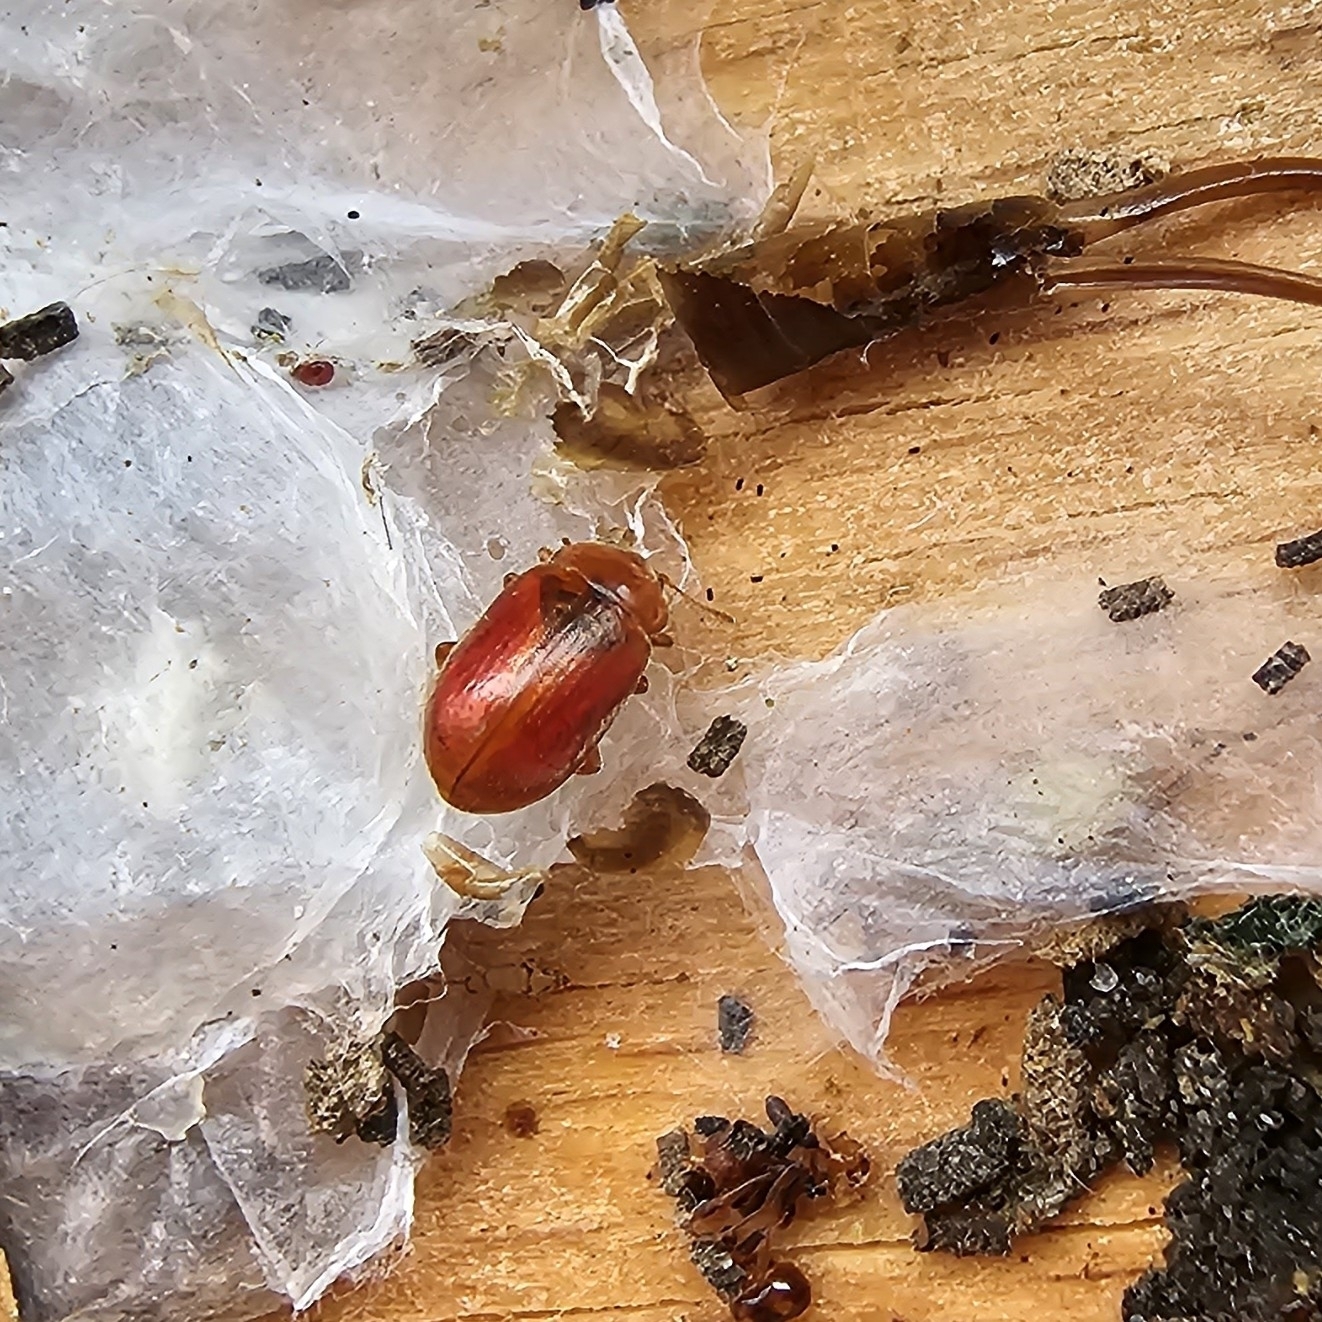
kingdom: Animalia
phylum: Arthropoda
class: Insecta
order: Coleoptera
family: Coccinellidae
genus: Coccidula
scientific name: Coccidula rufa
